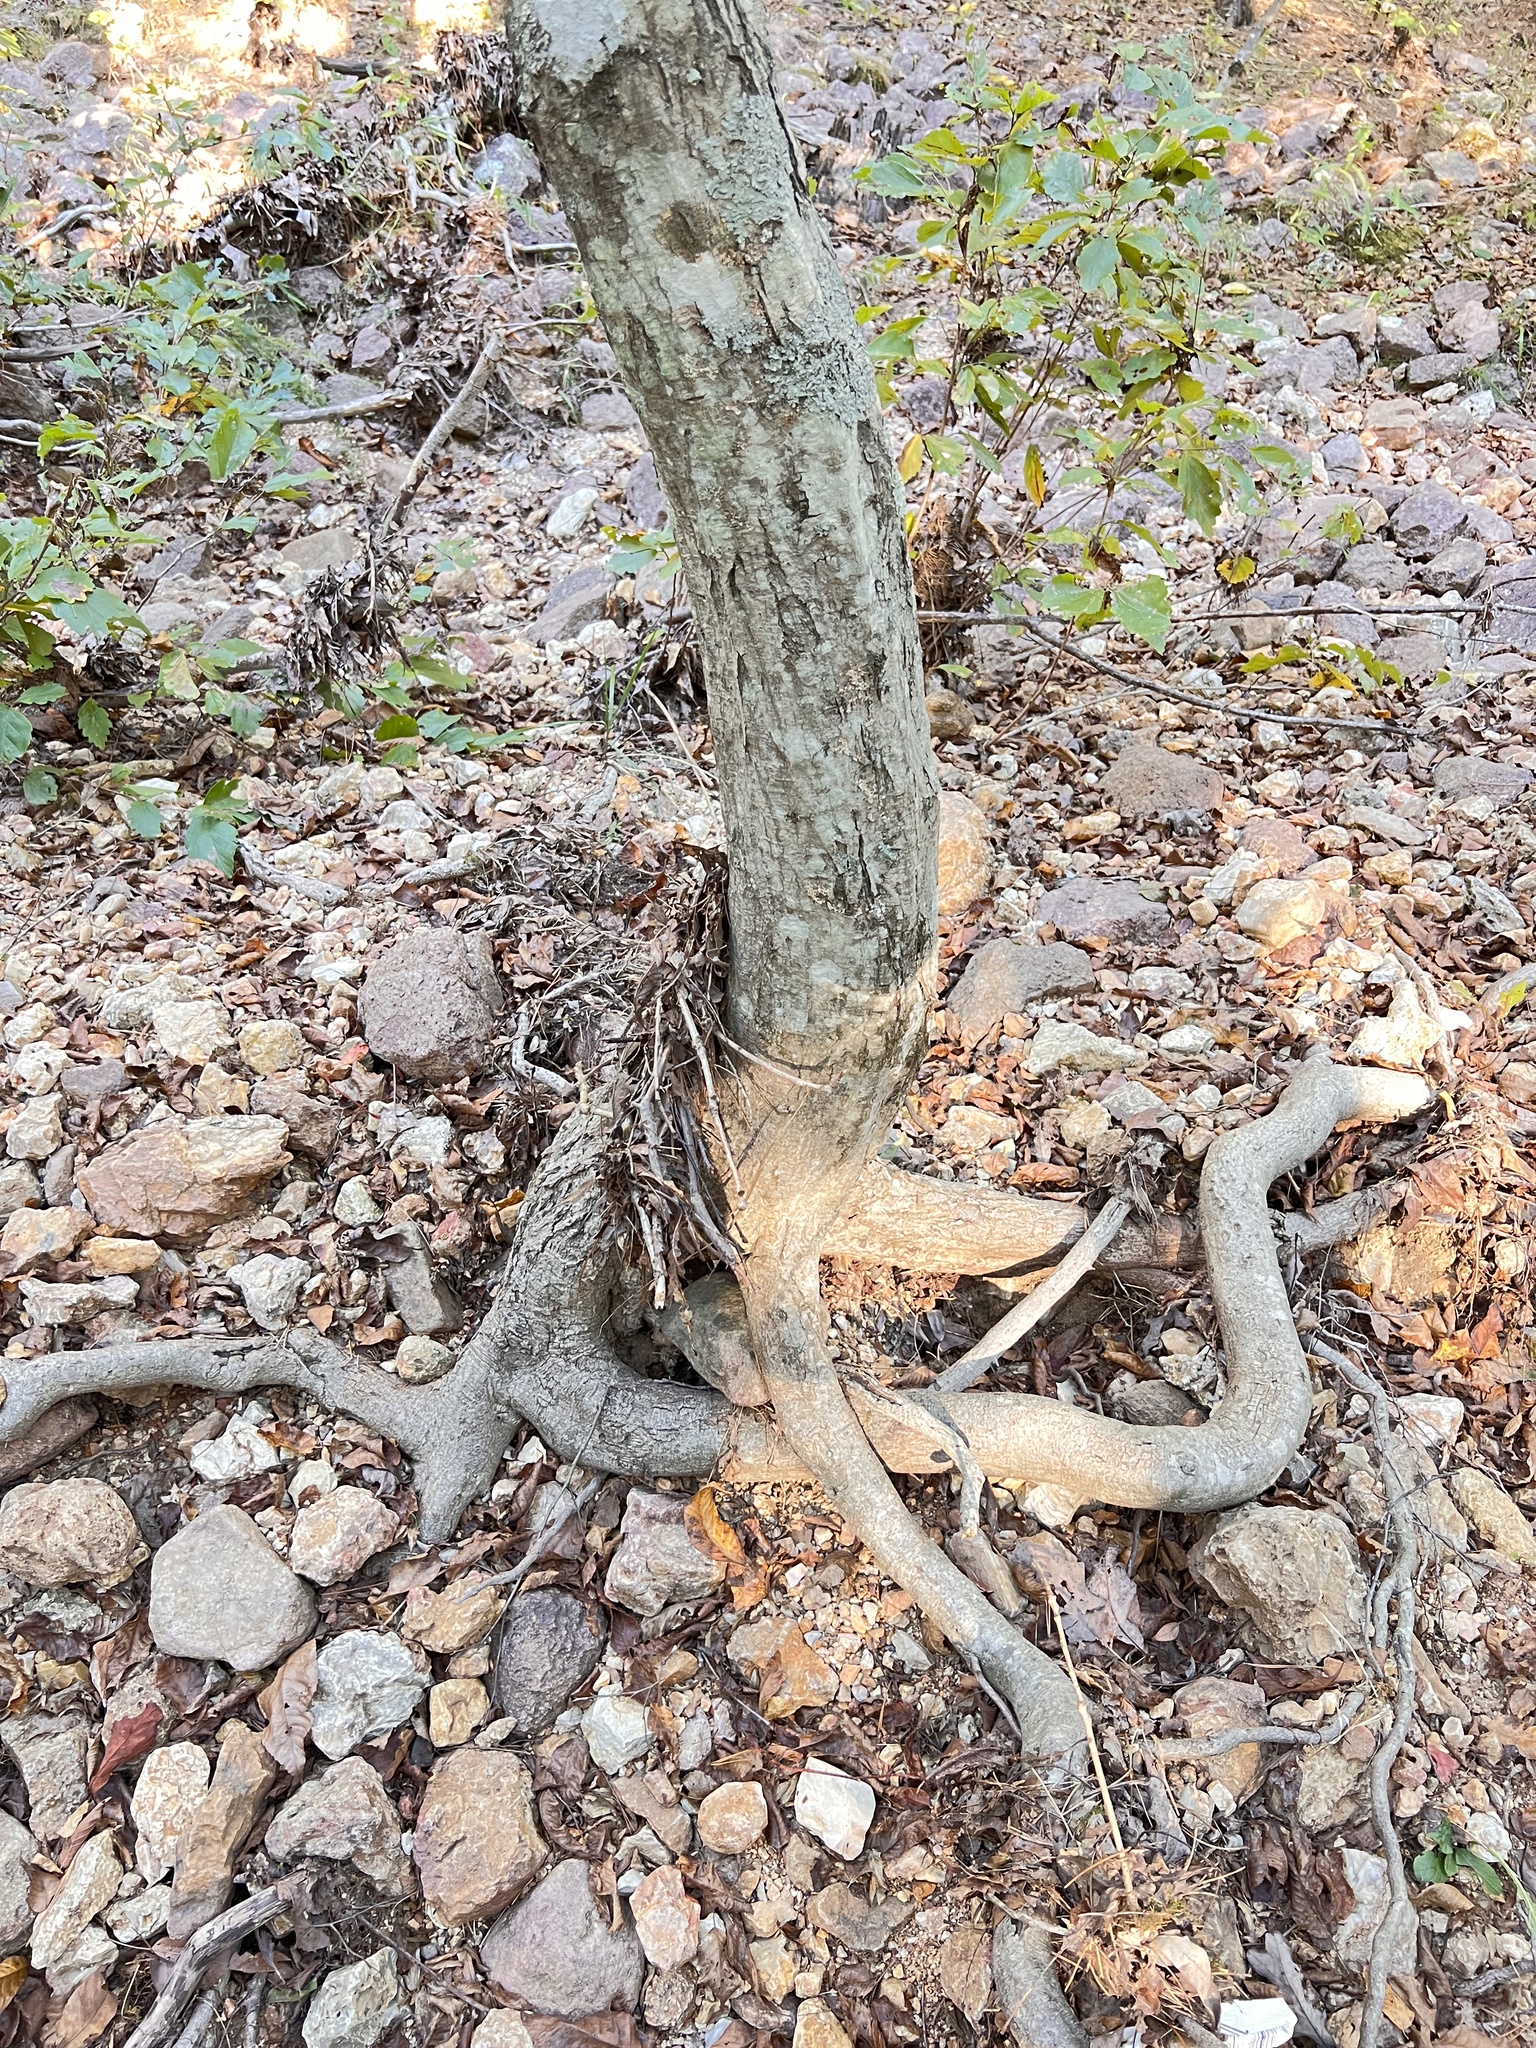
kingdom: Plantae
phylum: Tracheophyta
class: Magnoliopsida
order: Fagales
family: Betulaceae
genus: Carpinus
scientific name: Carpinus caroliniana
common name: American hornbeam
